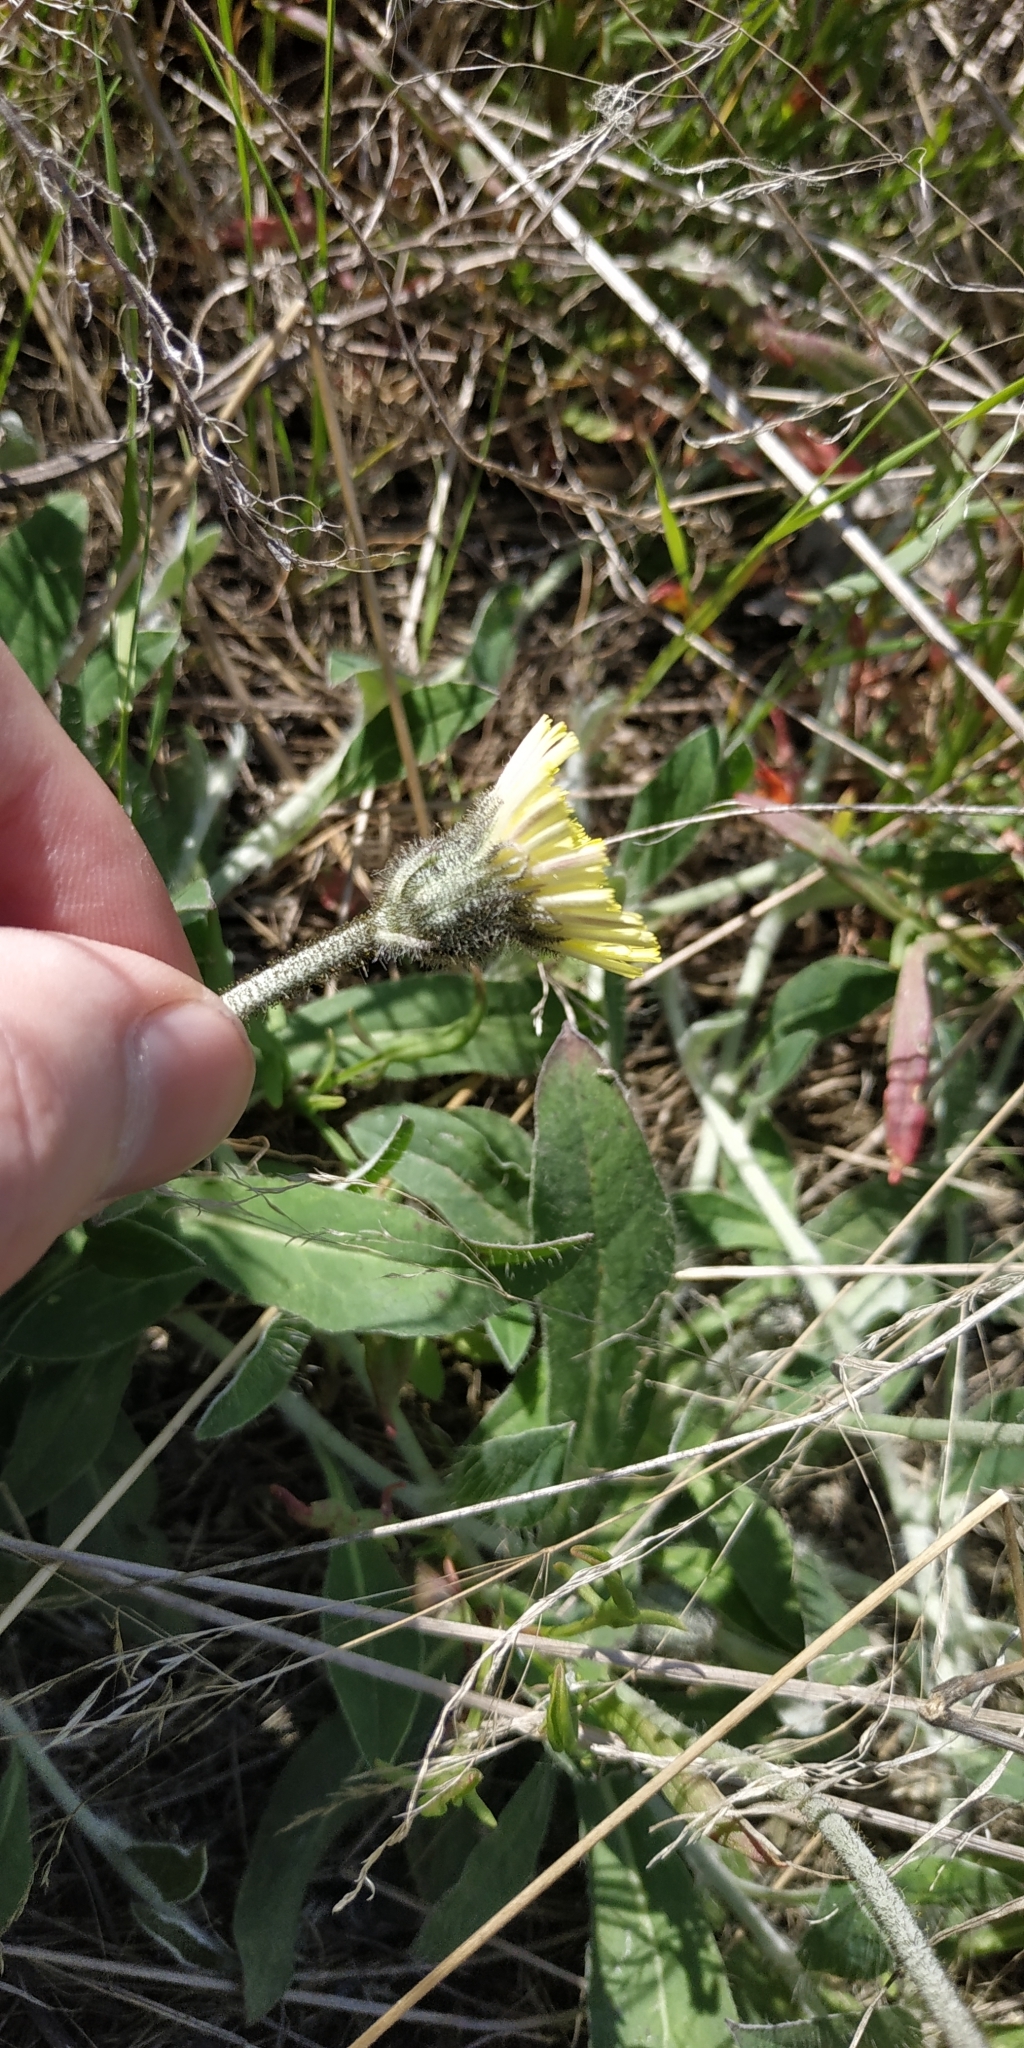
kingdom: Plantae
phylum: Tracheophyta
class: Magnoliopsida
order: Asterales
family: Asteraceae
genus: Pilosella
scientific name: Pilosella officinarum
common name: Mouse-ear hawkweed
